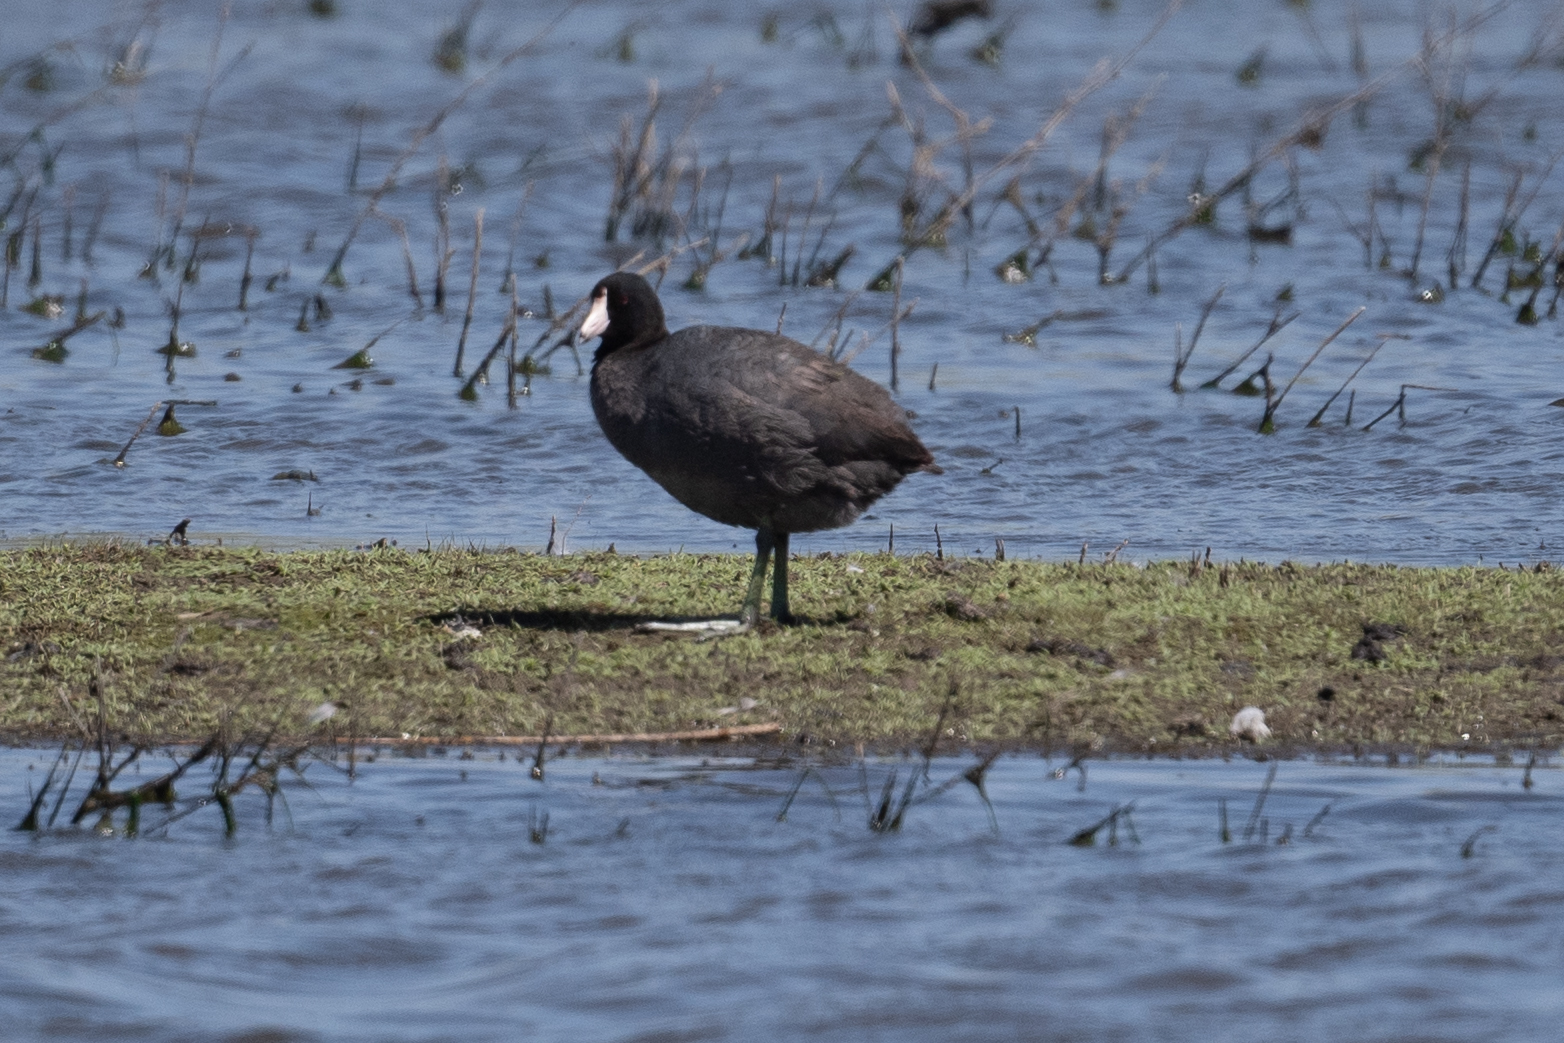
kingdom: Animalia
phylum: Chordata
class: Aves
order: Gruiformes
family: Rallidae
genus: Fulica
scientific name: Fulica americana
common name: American coot
